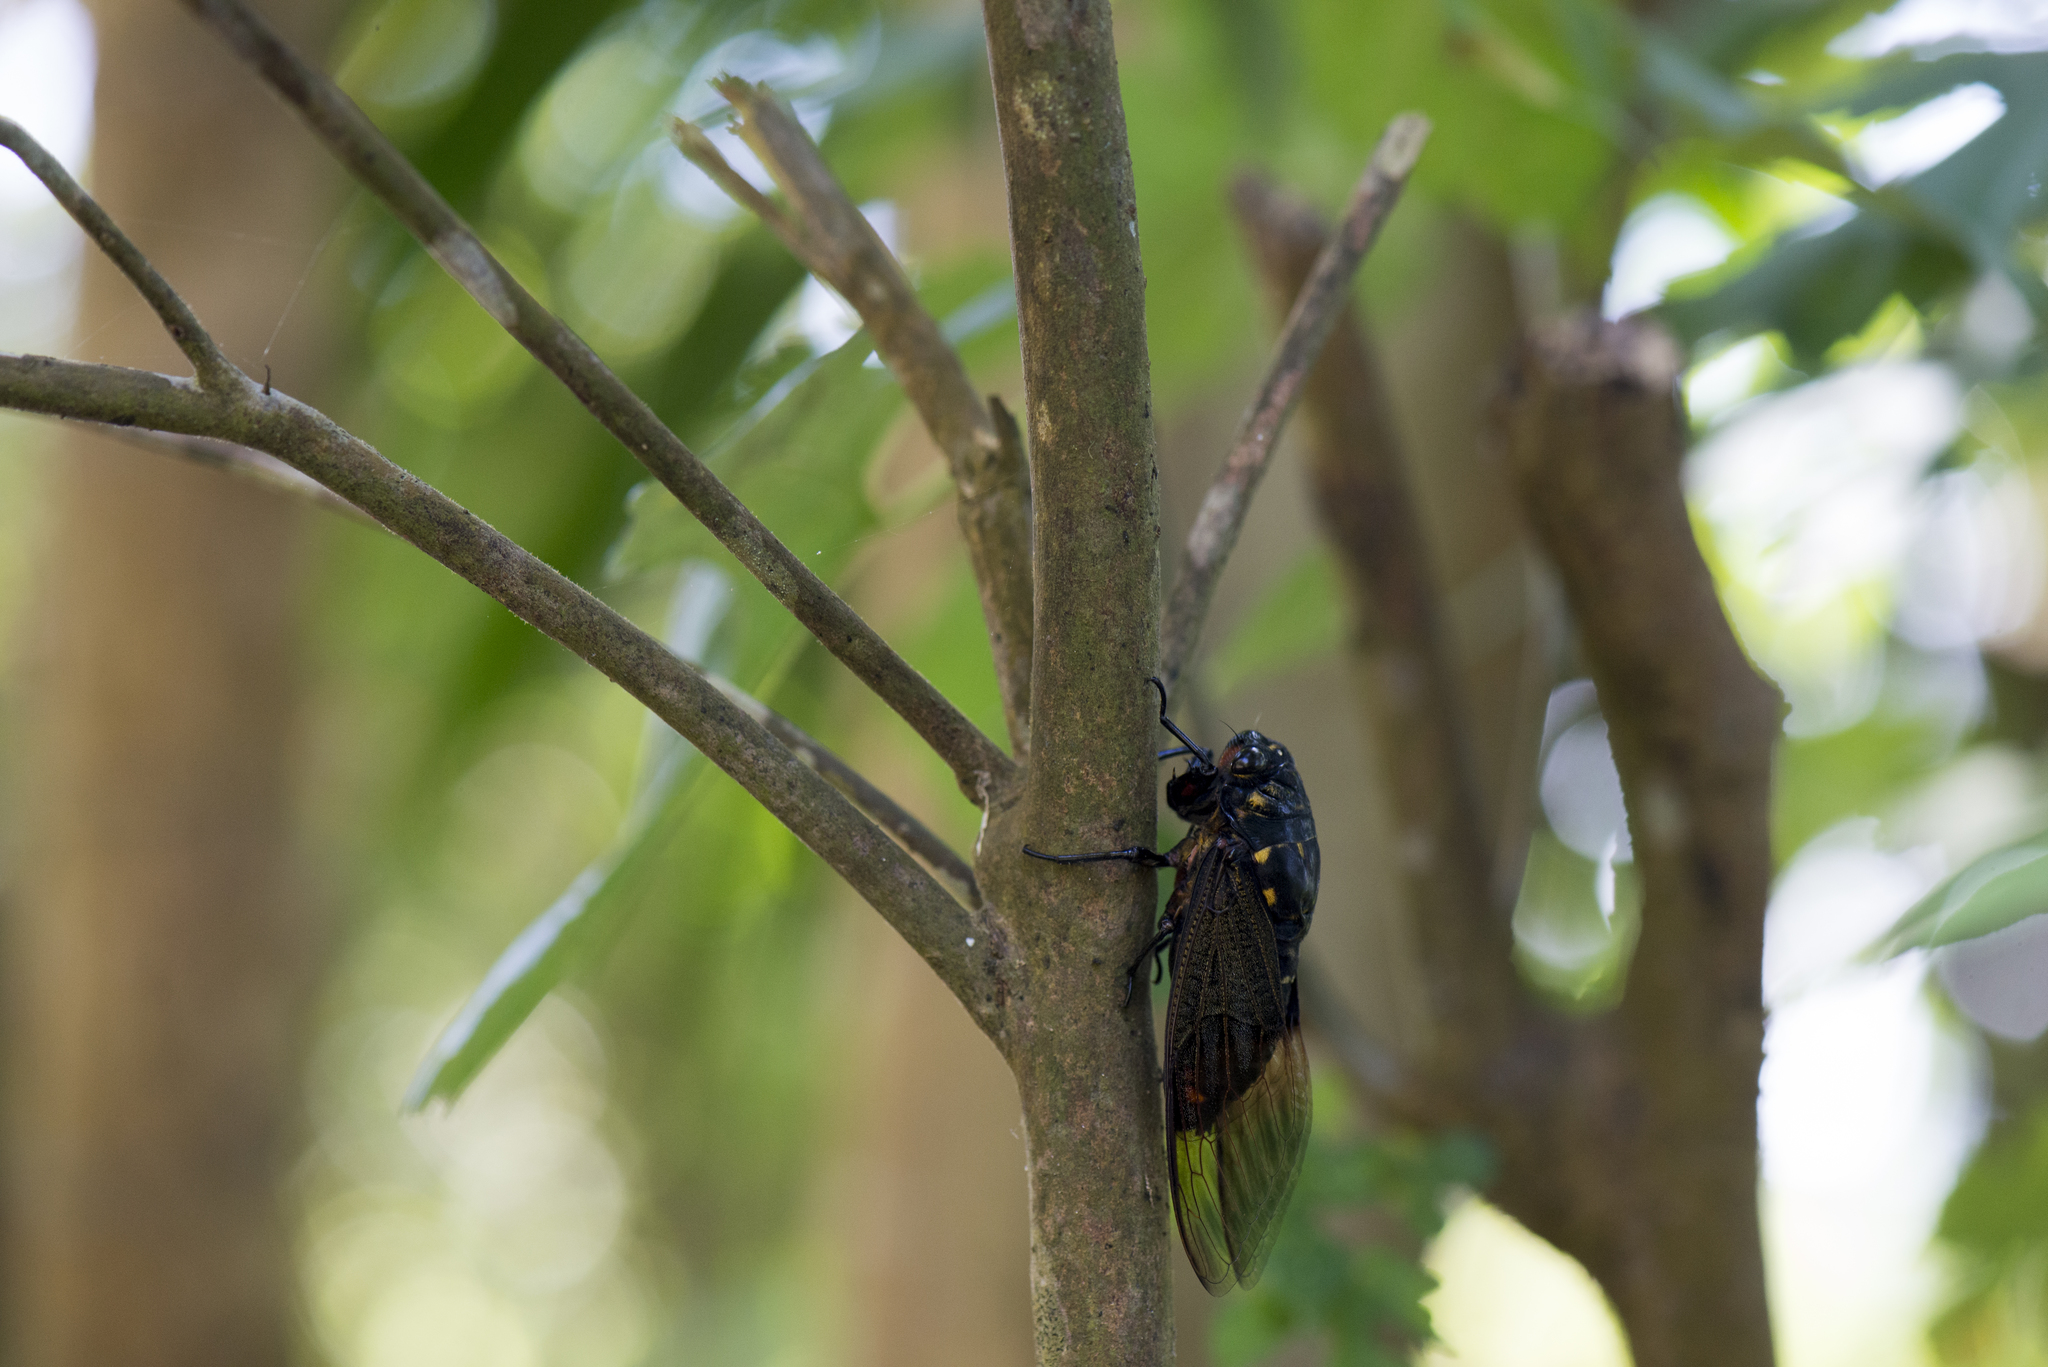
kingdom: Animalia
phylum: Arthropoda
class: Insecta
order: Hemiptera
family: Cicadidae
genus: Cryptotympana
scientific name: Cryptotympana holsti
